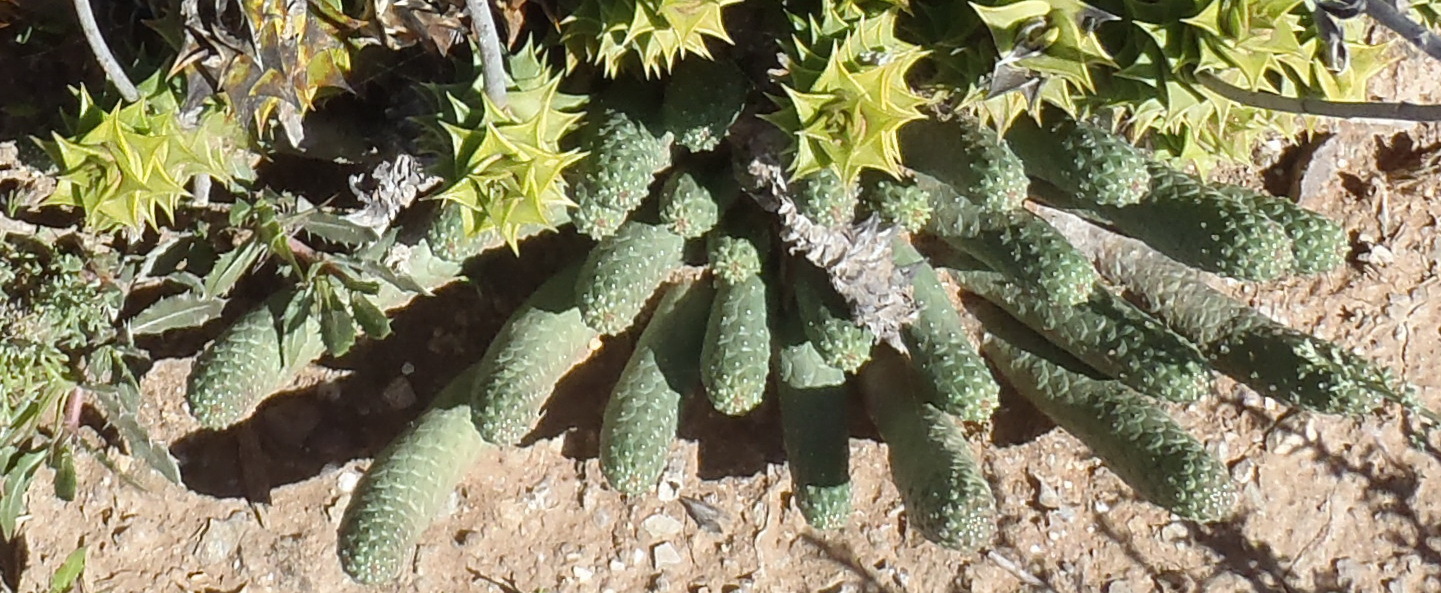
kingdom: Plantae
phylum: Tracheophyta
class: Magnoliopsida
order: Malpighiales
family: Euphorbiaceae
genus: Euphorbia
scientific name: Euphorbia esculenta
